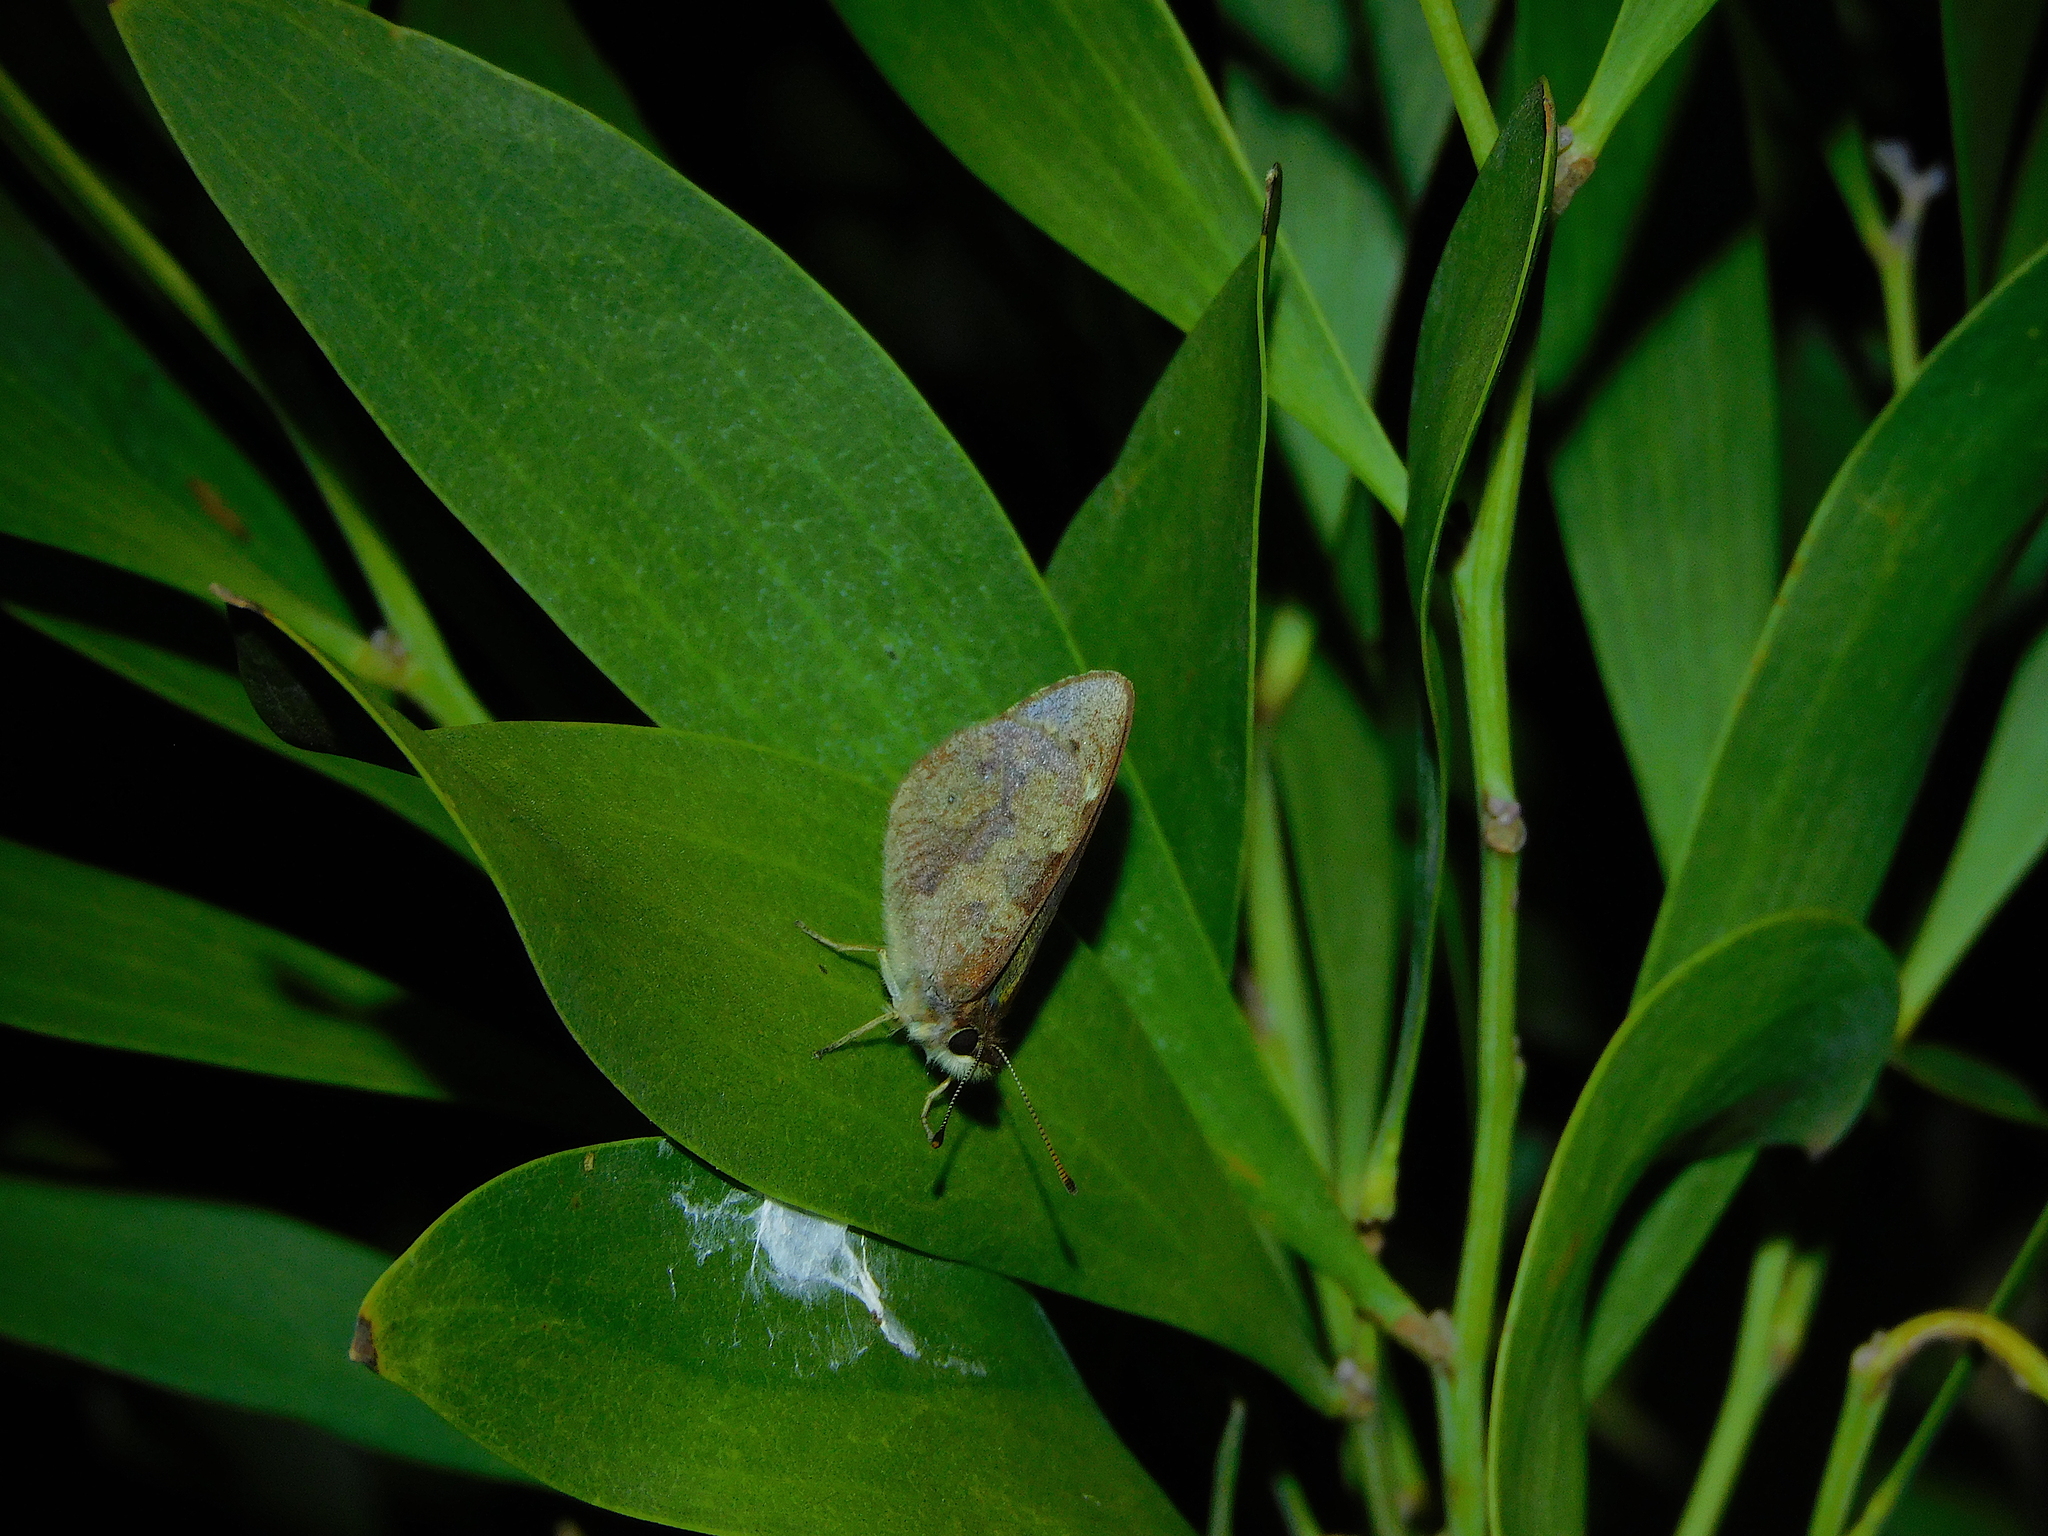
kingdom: Animalia
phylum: Arthropoda
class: Insecta
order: Lepidoptera
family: Nymphalidae
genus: Argynnina
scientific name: Argynnina hobartia
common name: Hobart brown
